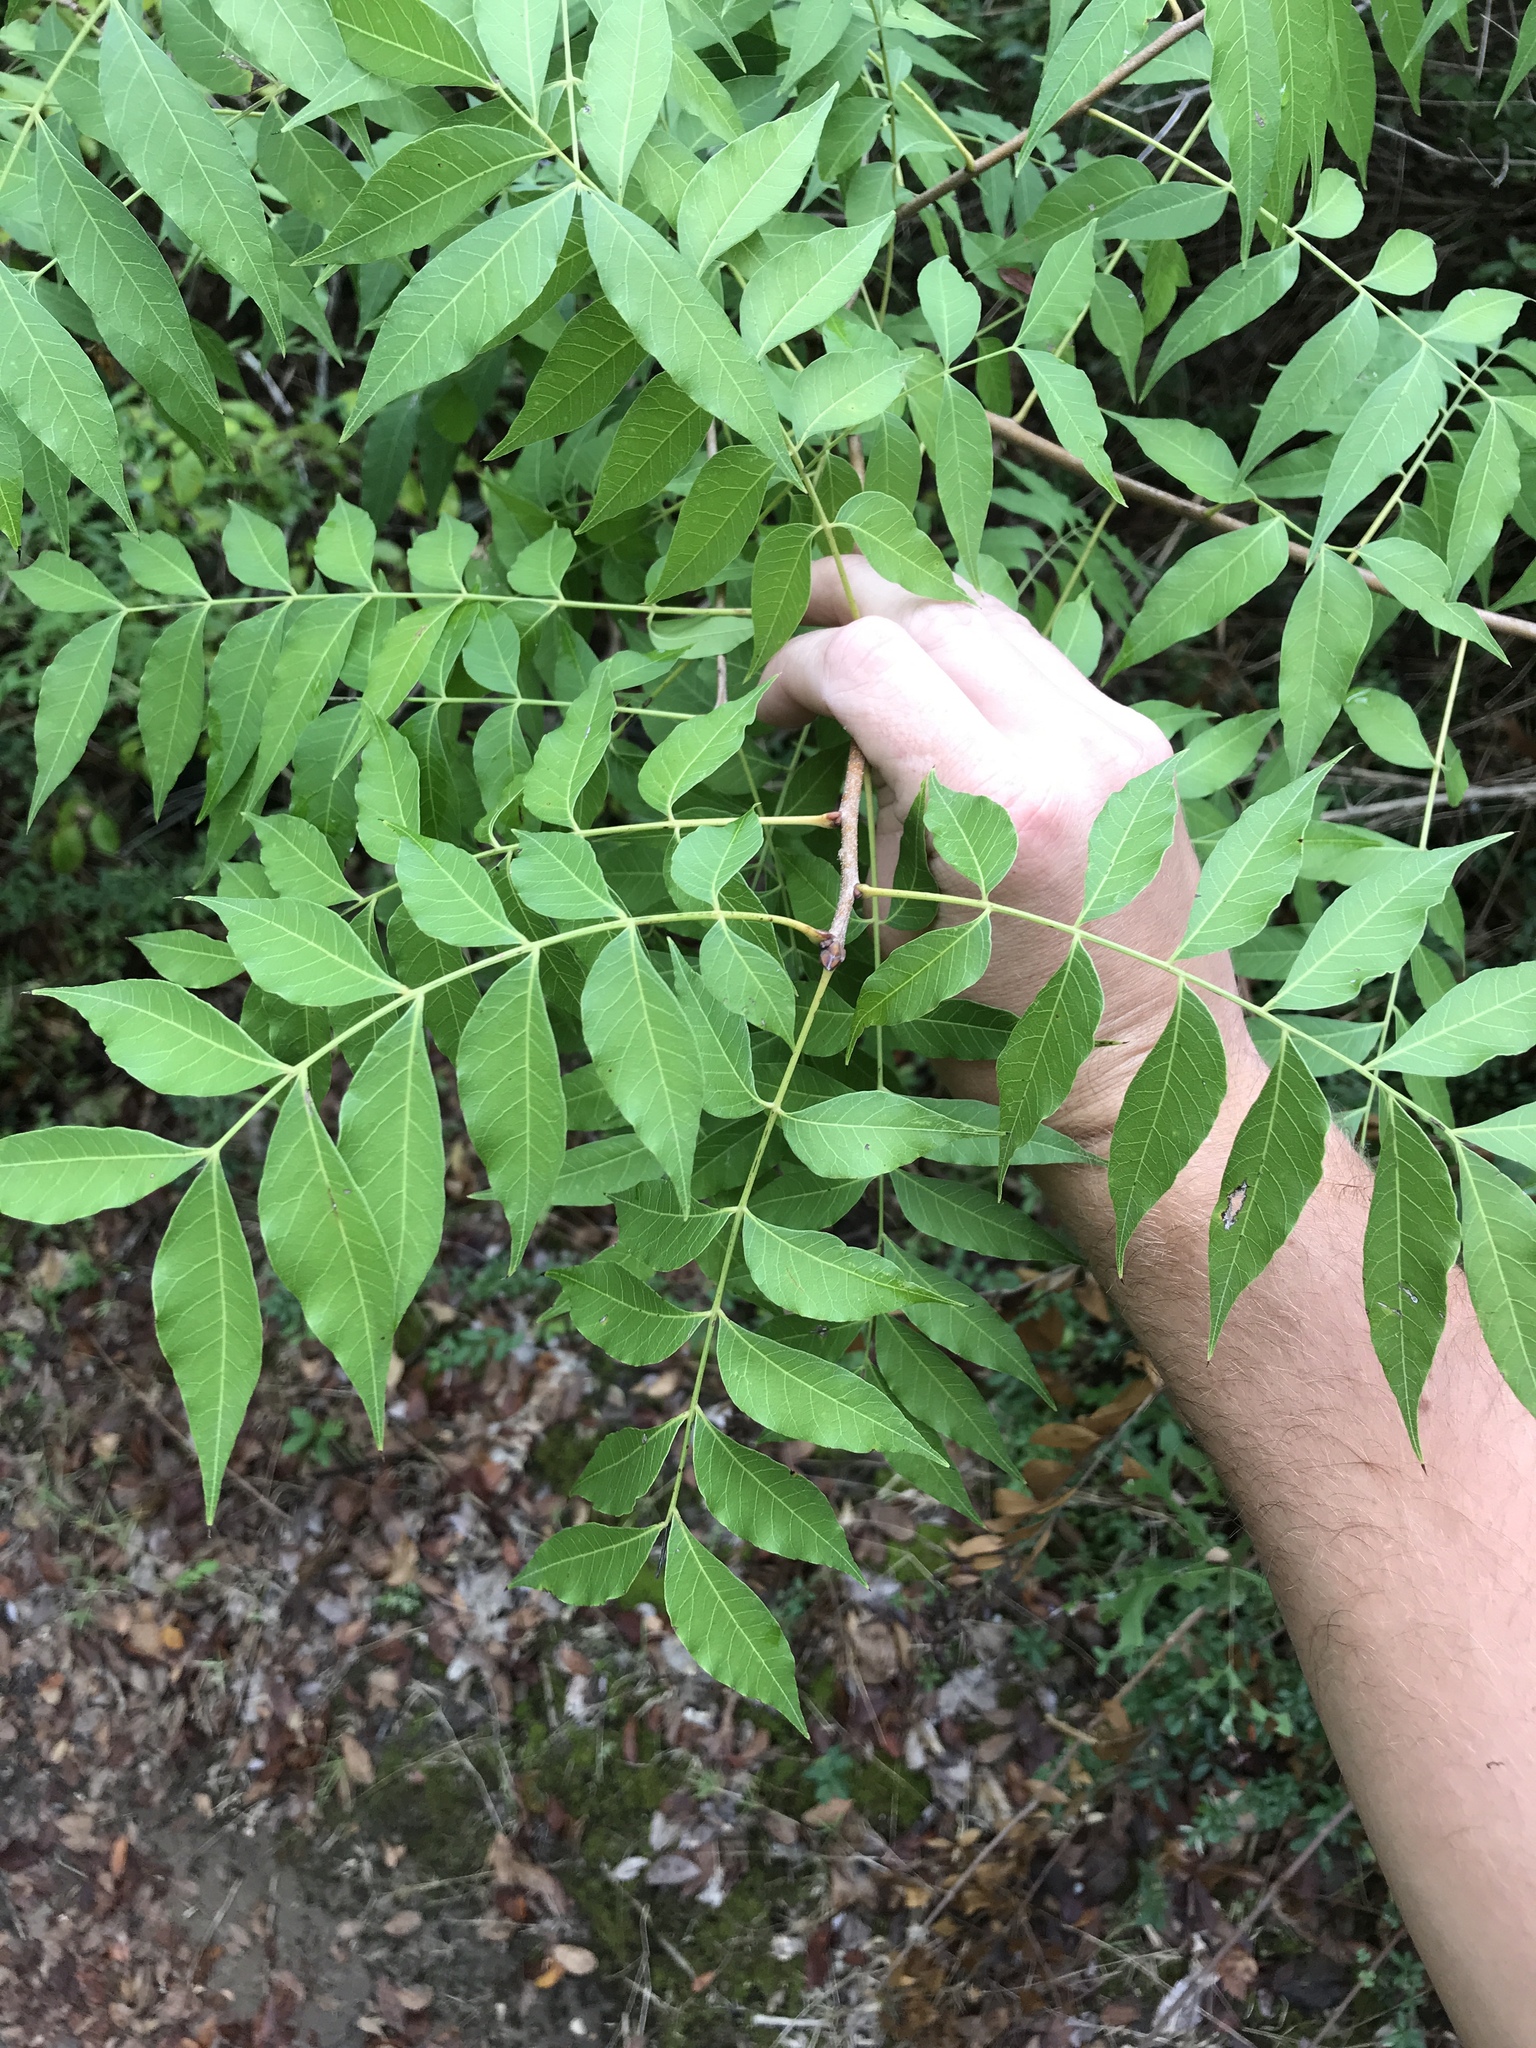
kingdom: Plantae
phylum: Tracheophyta
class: Magnoliopsida
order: Sapindales
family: Anacardiaceae
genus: Pistacia
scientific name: Pistacia chinensis
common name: Chinese pistache
